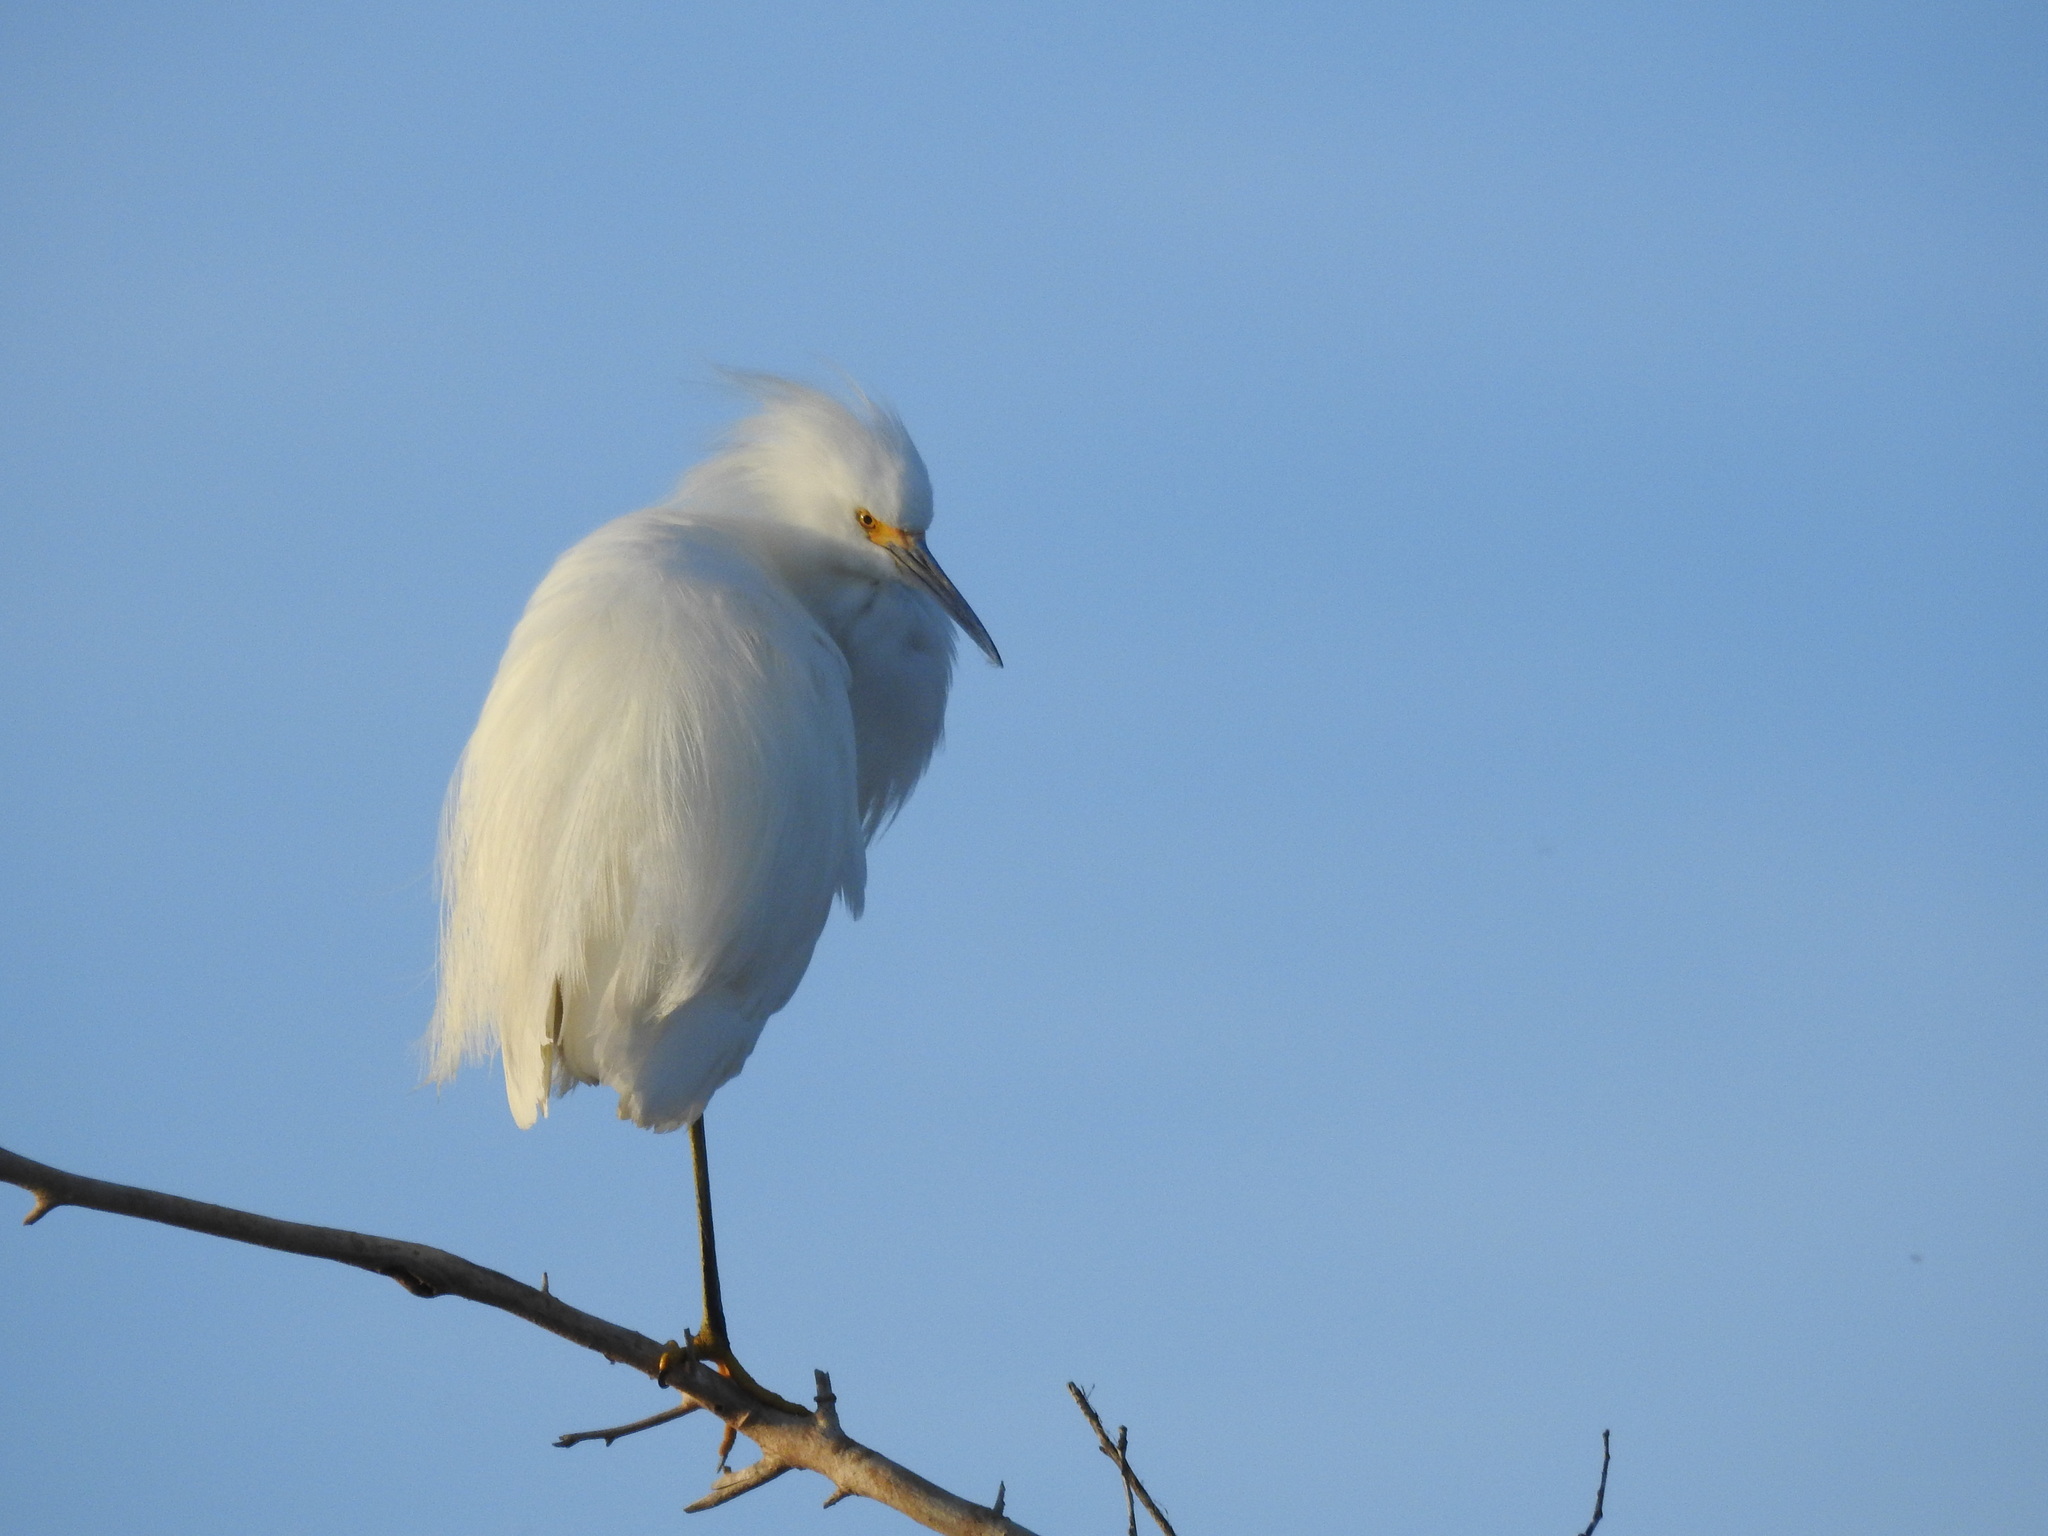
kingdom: Animalia
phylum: Chordata
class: Aves
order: Pelecaniformes
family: Ardeidae
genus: Egretta
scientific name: Egretta thula
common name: Snowy egret
